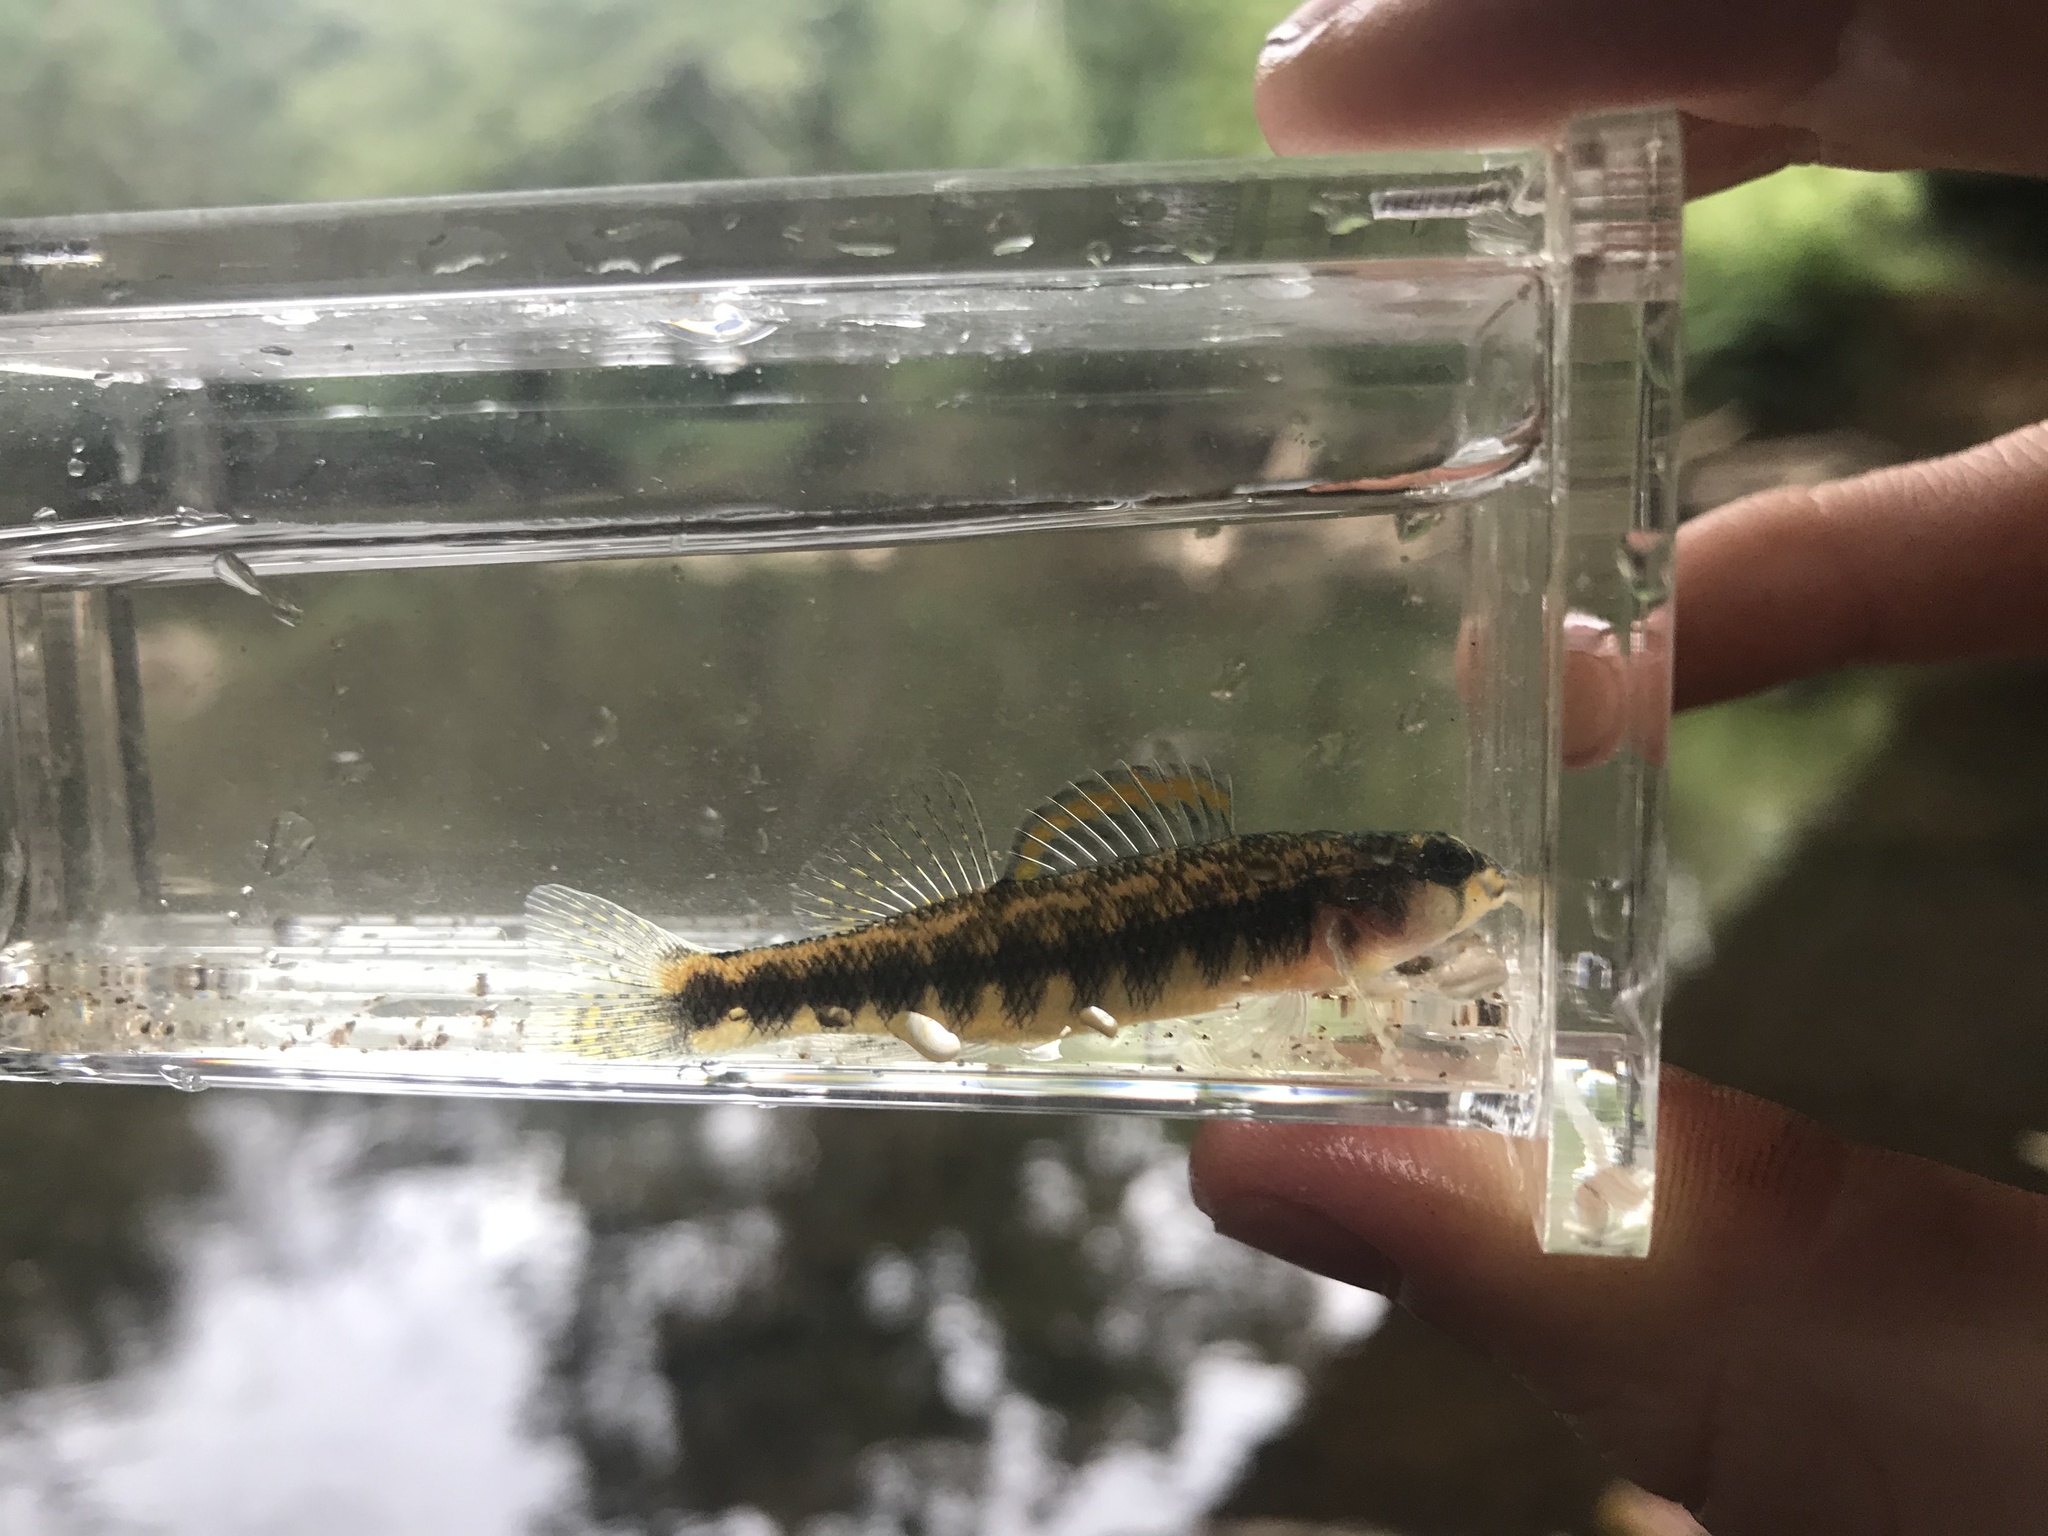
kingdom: Animalia
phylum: Chordata
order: Perciformes
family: Percidae
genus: Percina
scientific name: Percina roanoka
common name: Roanoke darter
